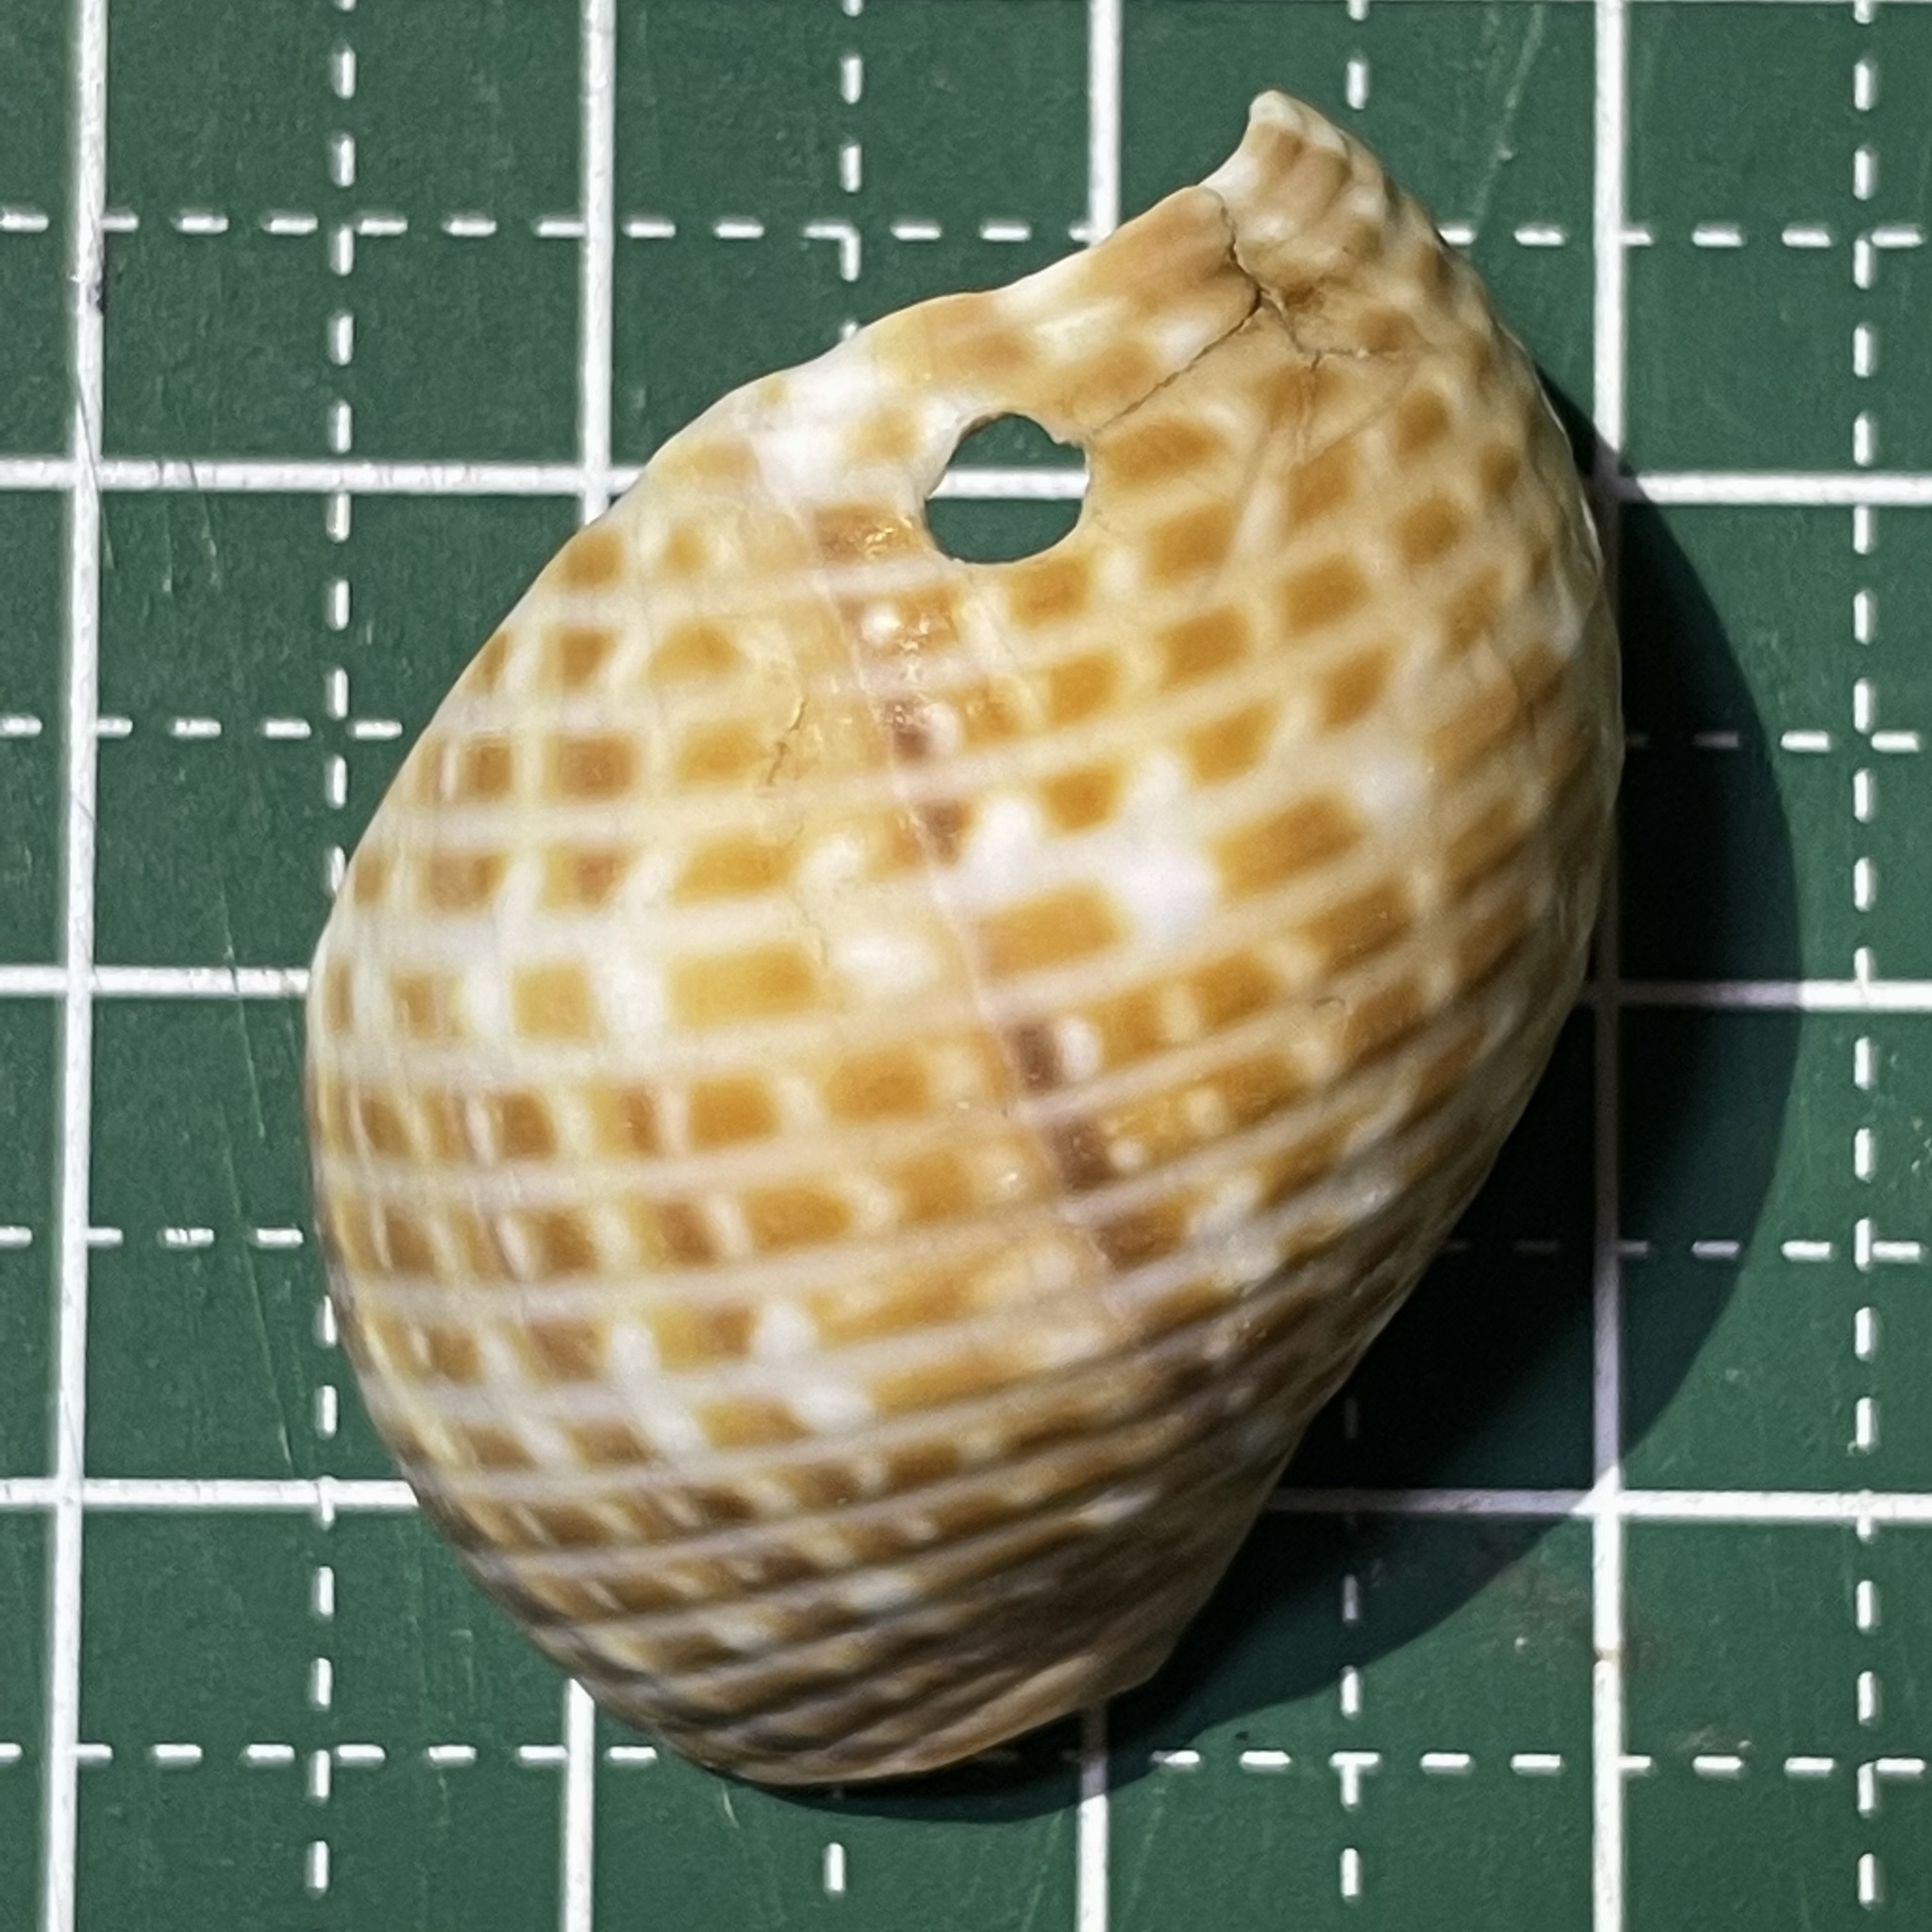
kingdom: Animalia
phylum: Mollusca
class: Gastropoda
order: Littorinimorpha
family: Tonnidae
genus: Tonna
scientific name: Tonna perdix
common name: Pacific partridge tun
